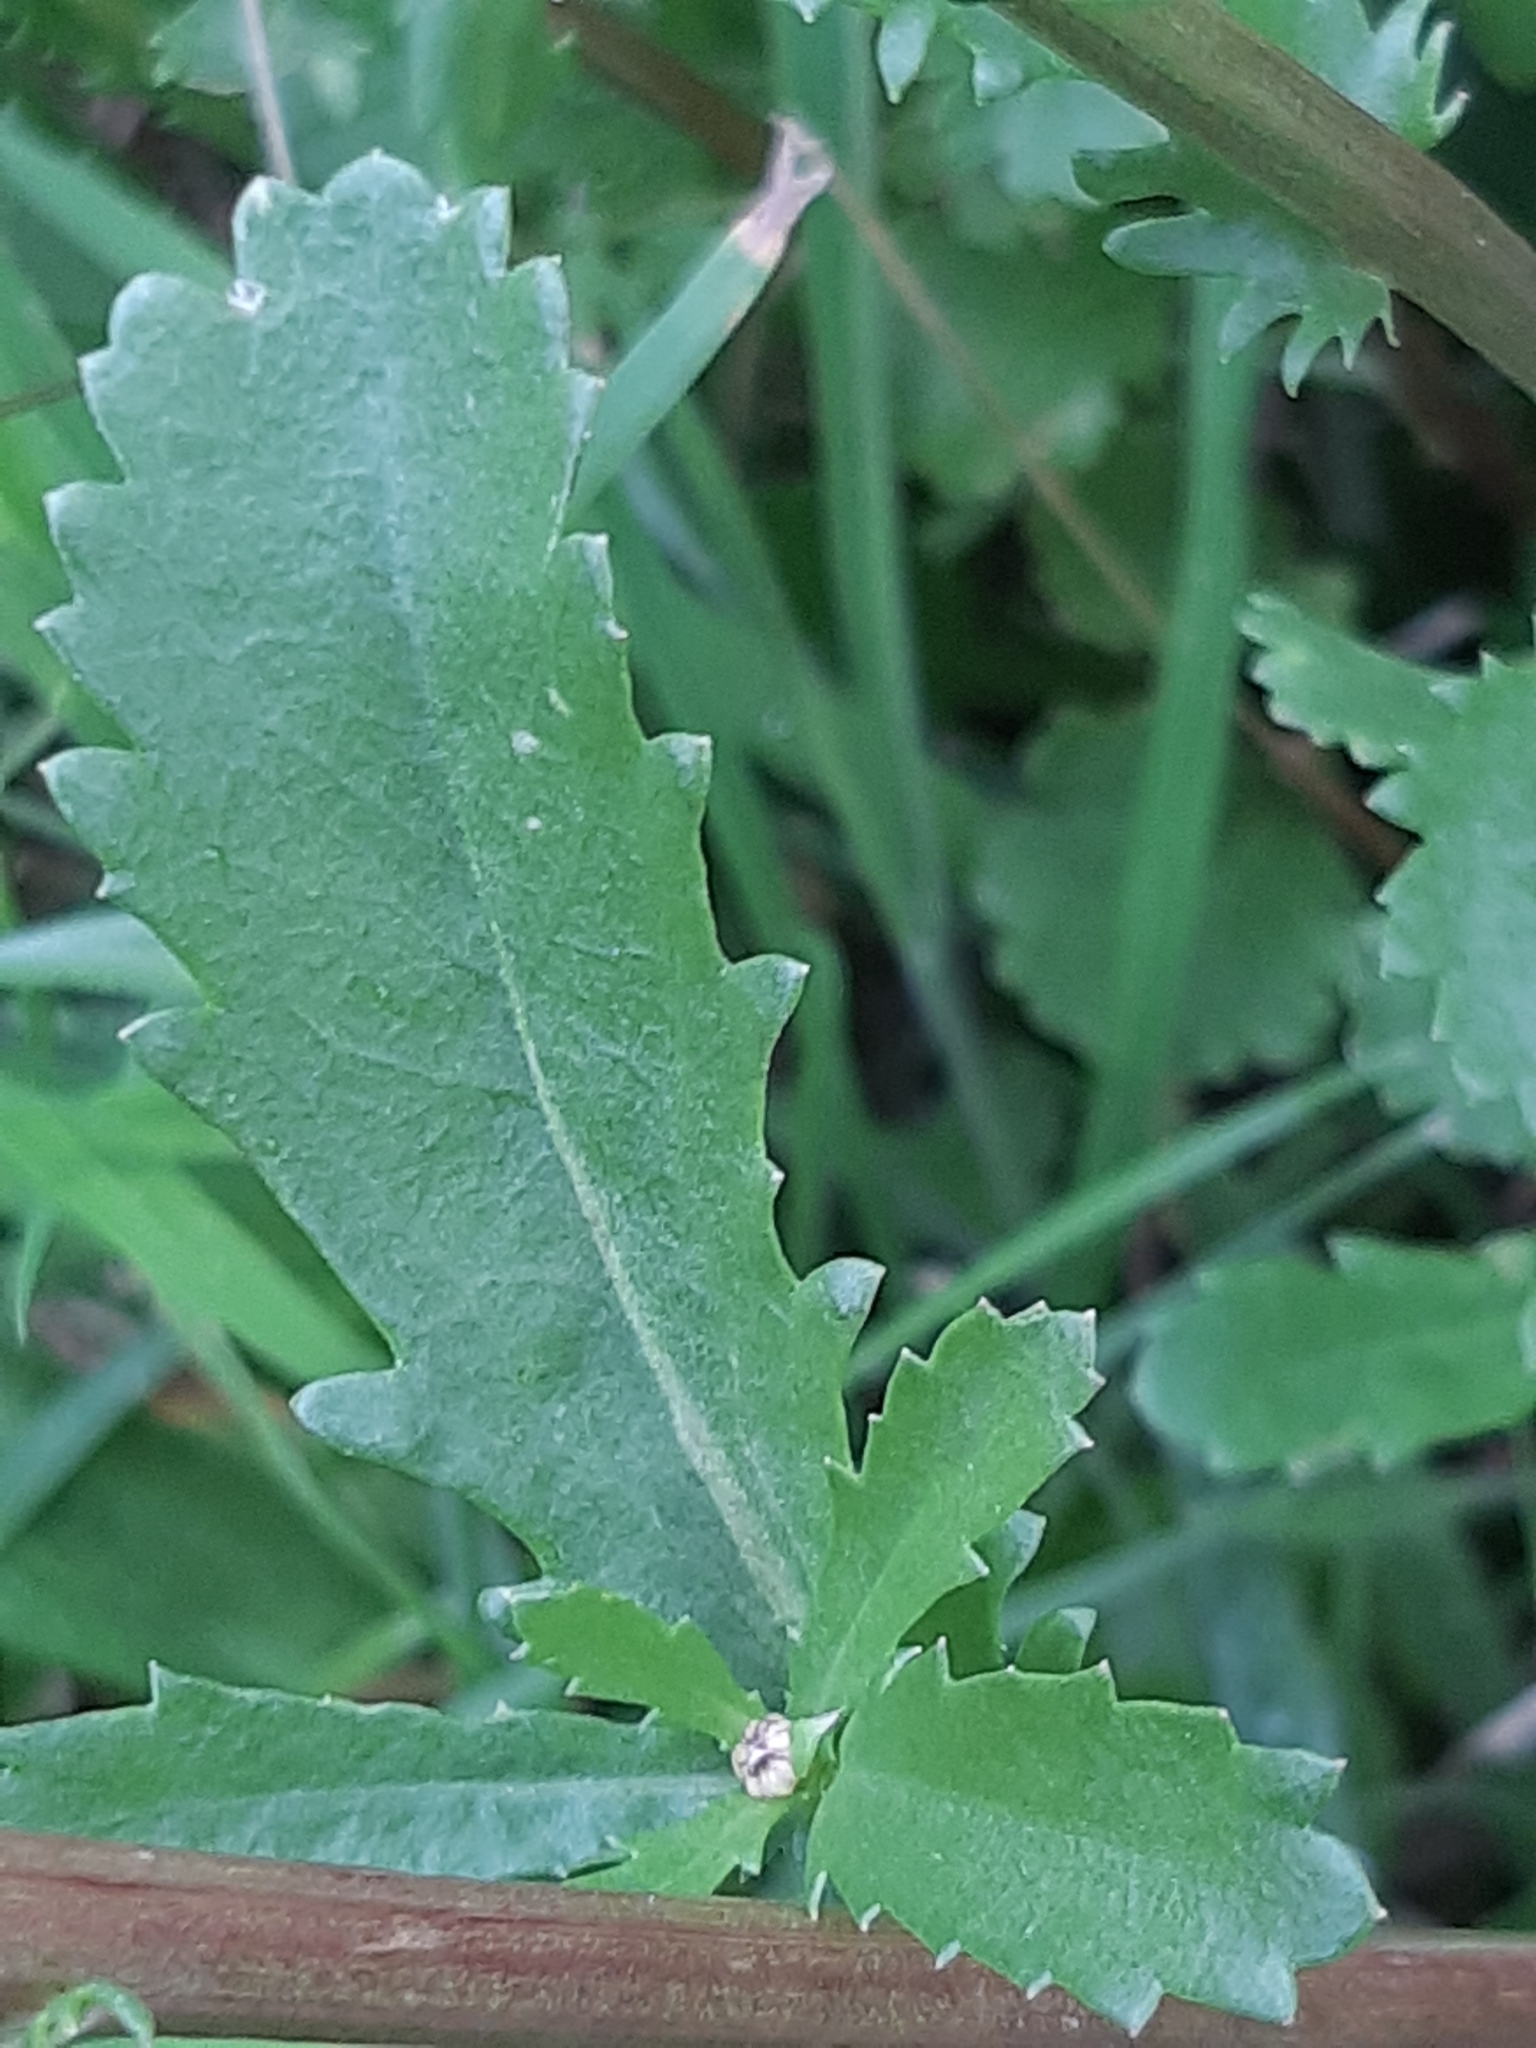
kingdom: Plantae
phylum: Tracheophyta
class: Magnoliopsida
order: Asterales
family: Asteraceae
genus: Leucanthemum
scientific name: Leucanthemum vulgare
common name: Oxeye daisy
